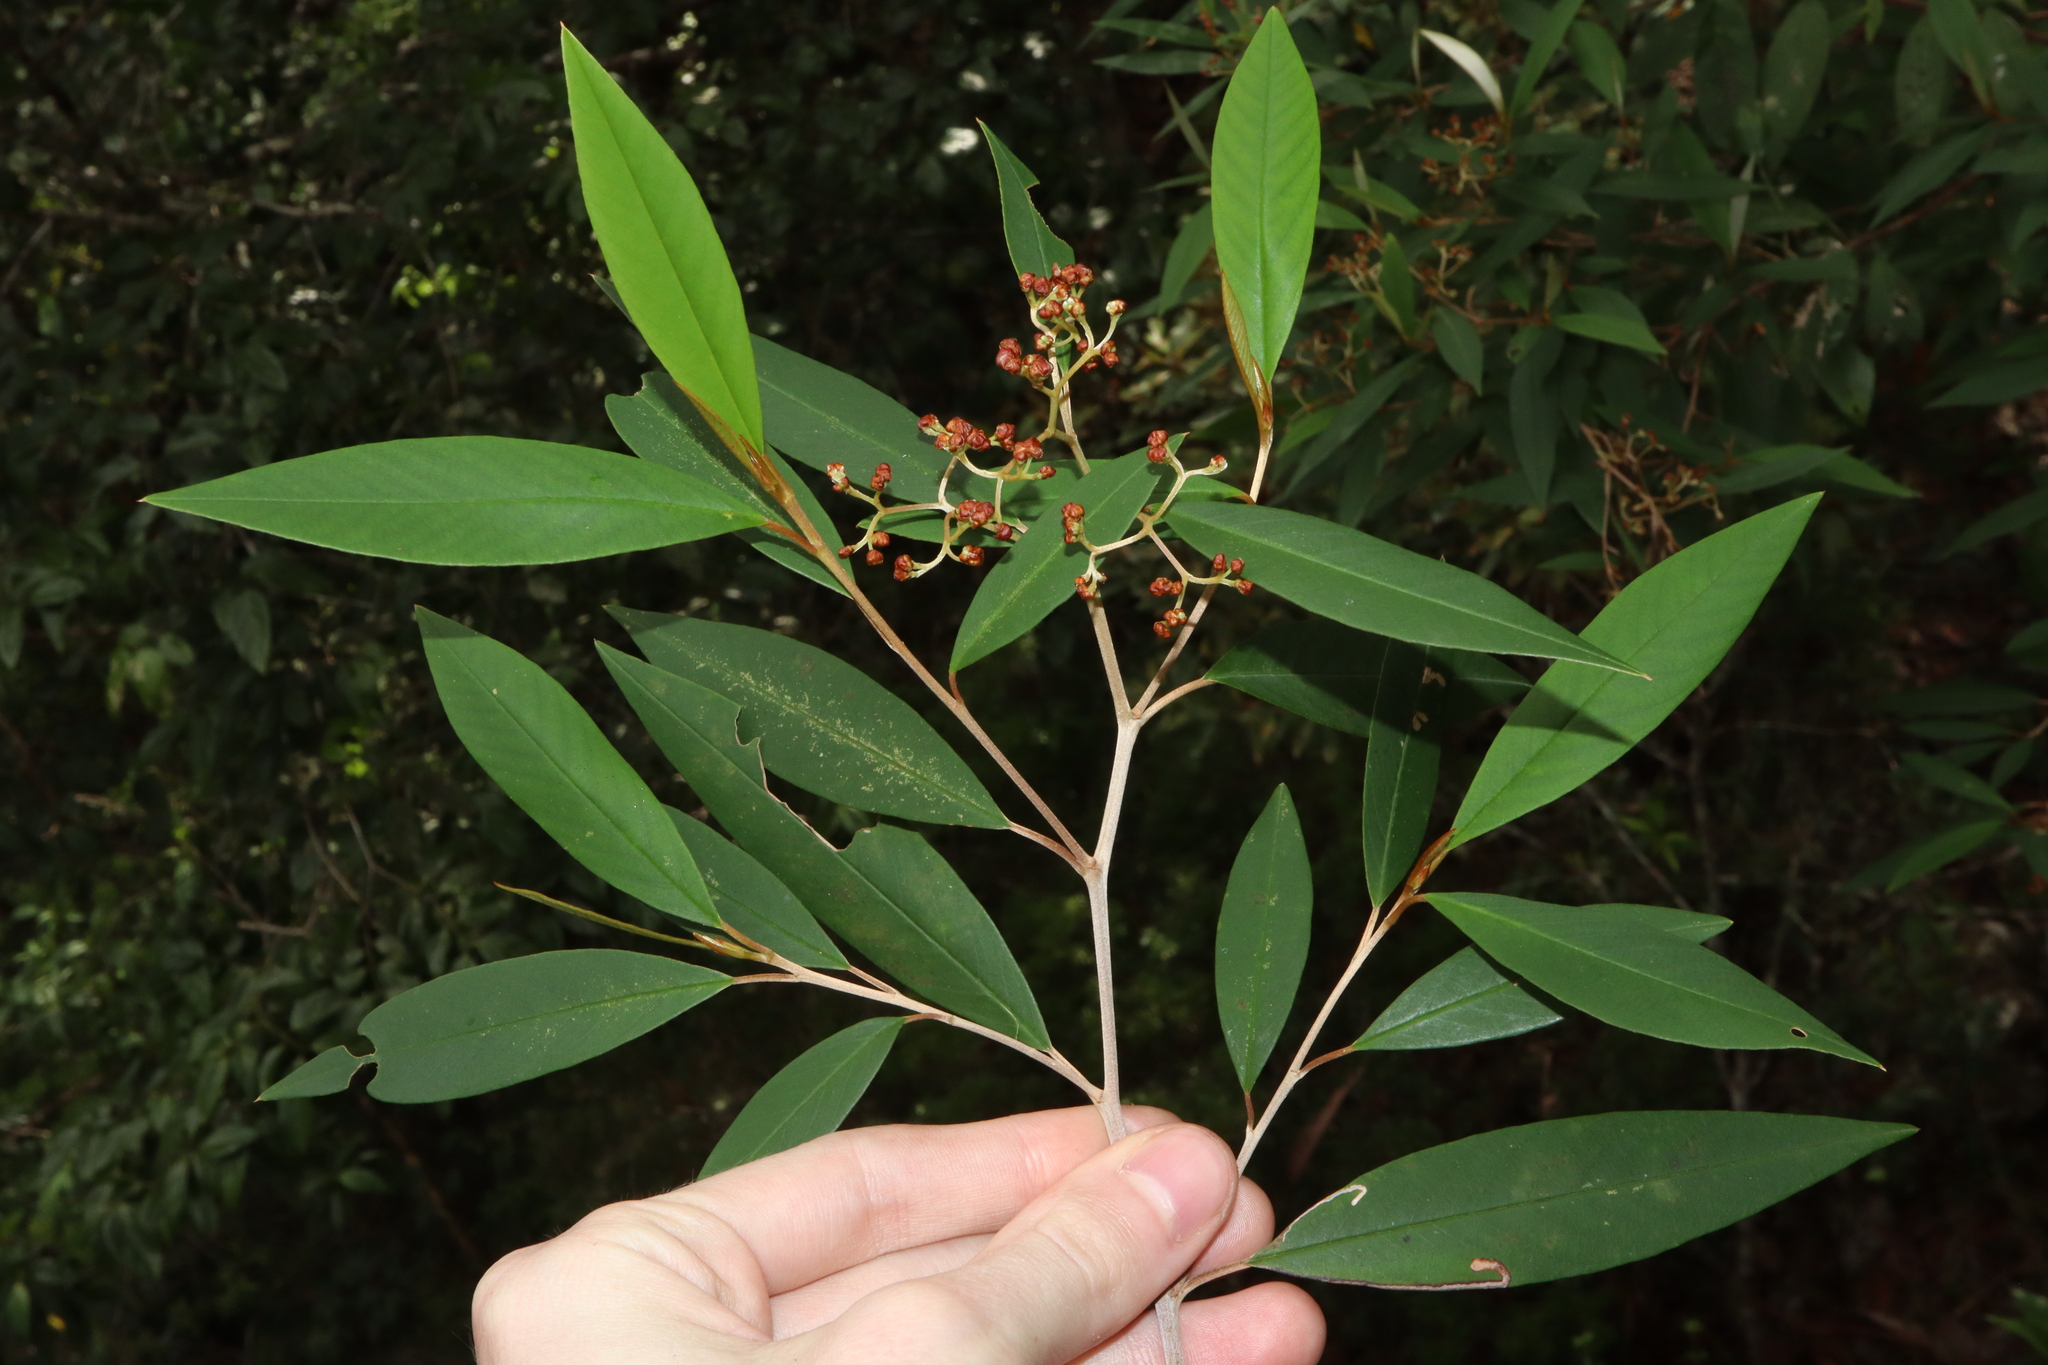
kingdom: Plantae
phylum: Tracheophyta
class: Magnoliopsida
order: Rosales
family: Rhamnaceae
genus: Pomaderris
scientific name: Pomaderris argyrophylla
